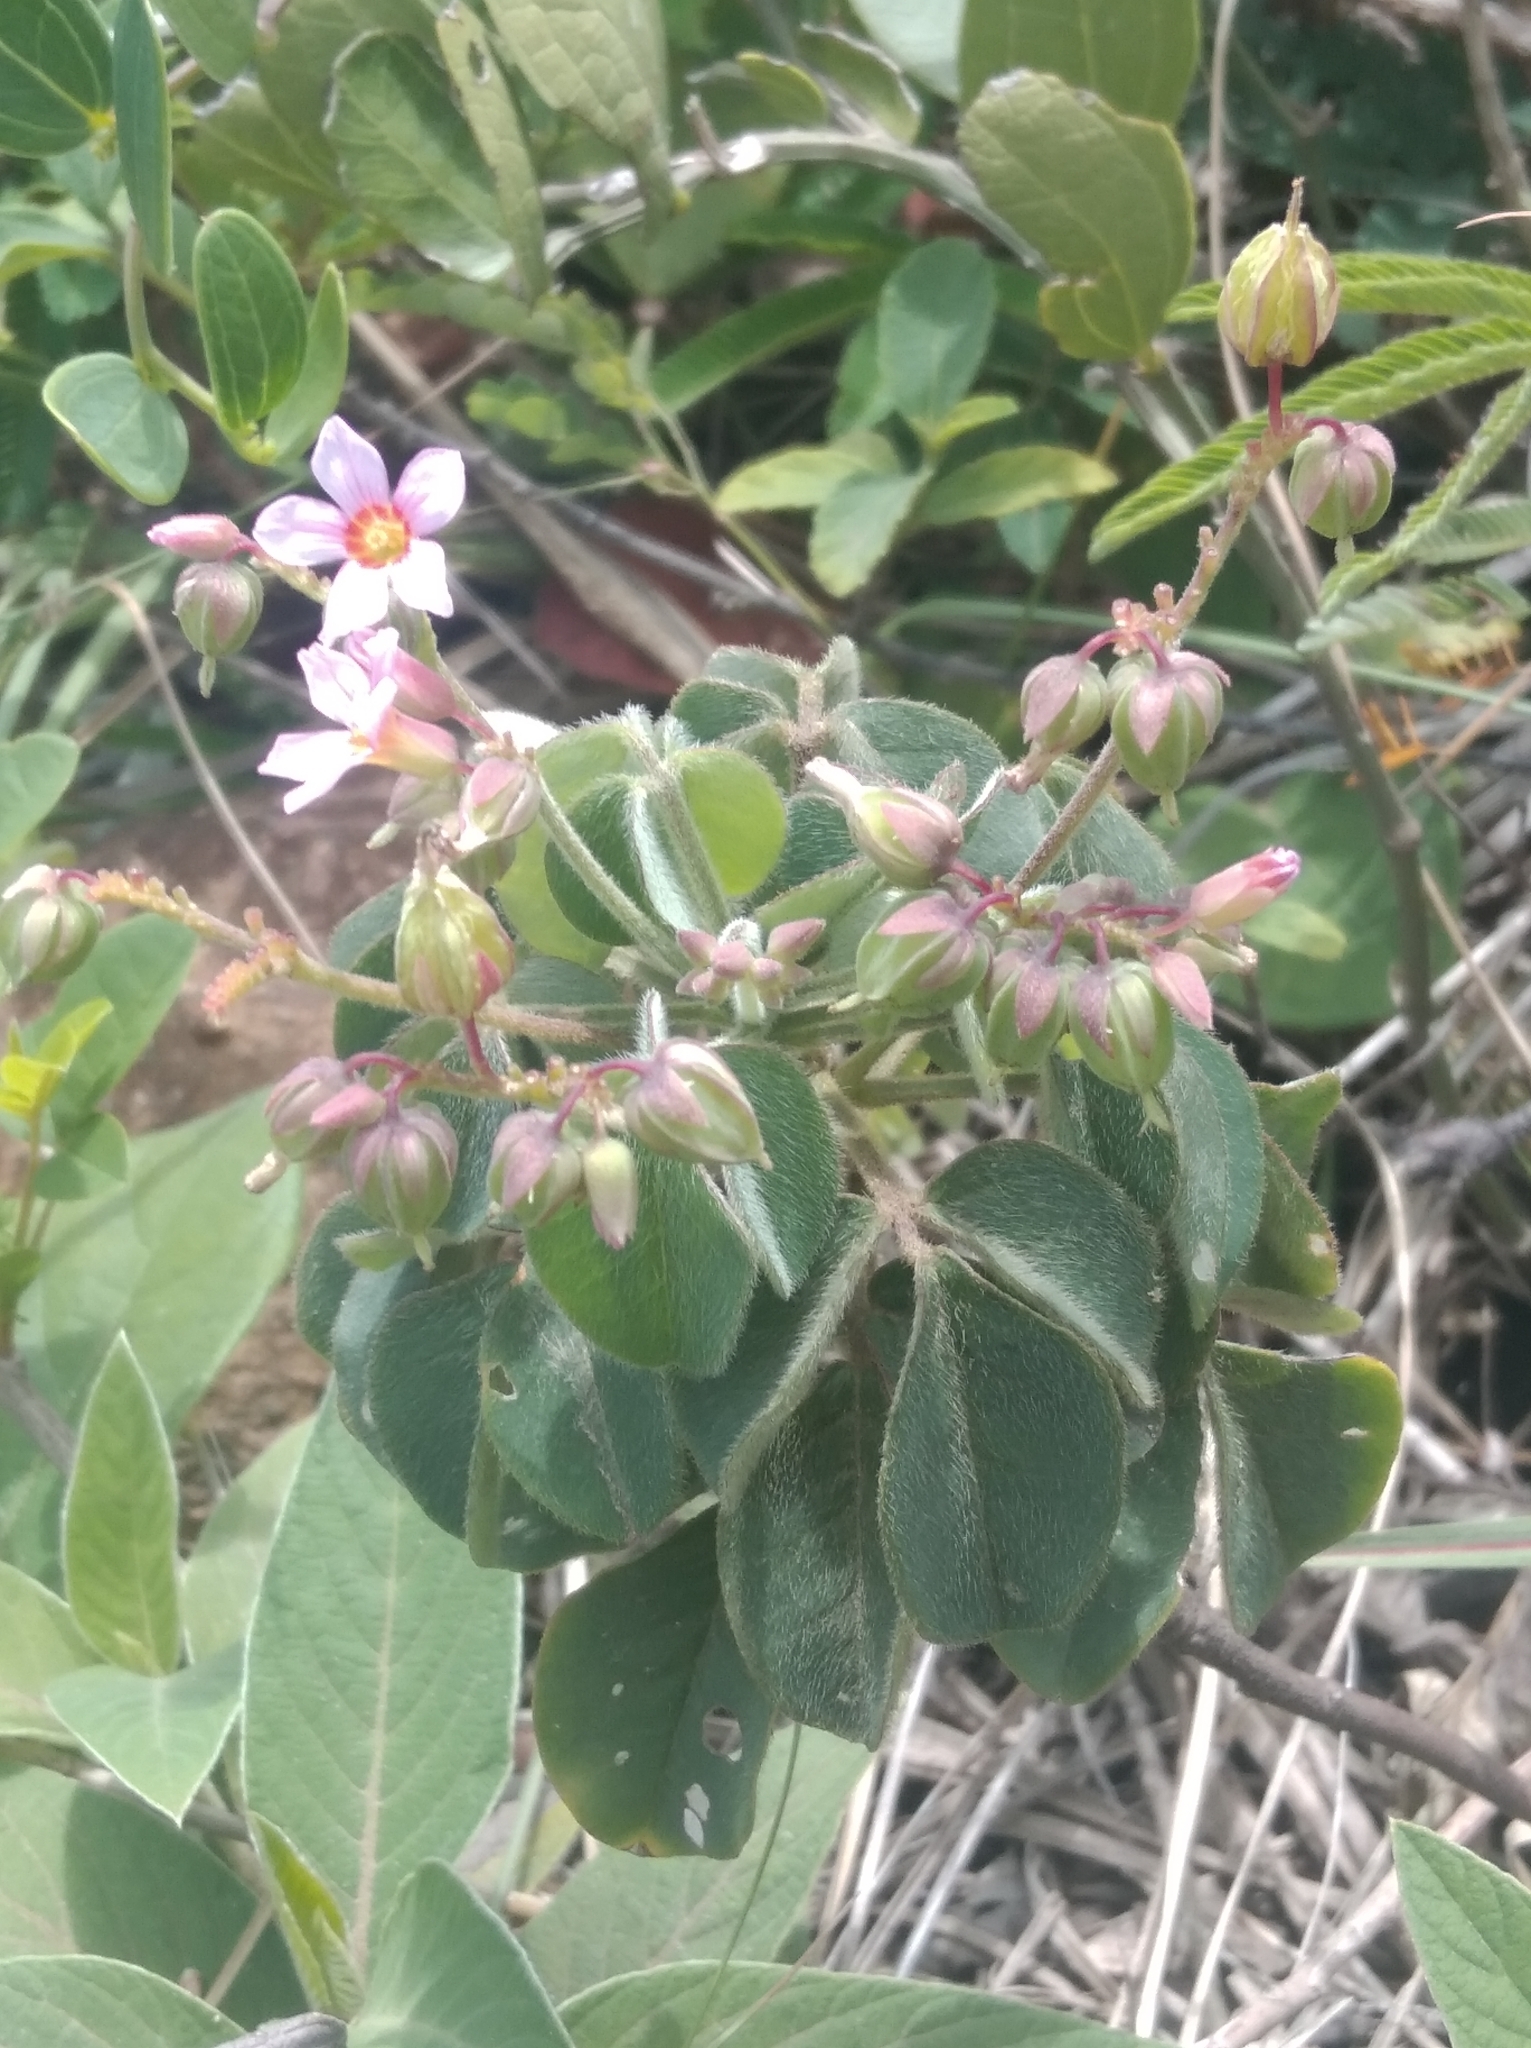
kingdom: Plantae
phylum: Tracheophyta
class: Magnoliopsida
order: Oxalidales
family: Oxalidaceae
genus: Oxalis
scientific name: Oxalis barrelieri
